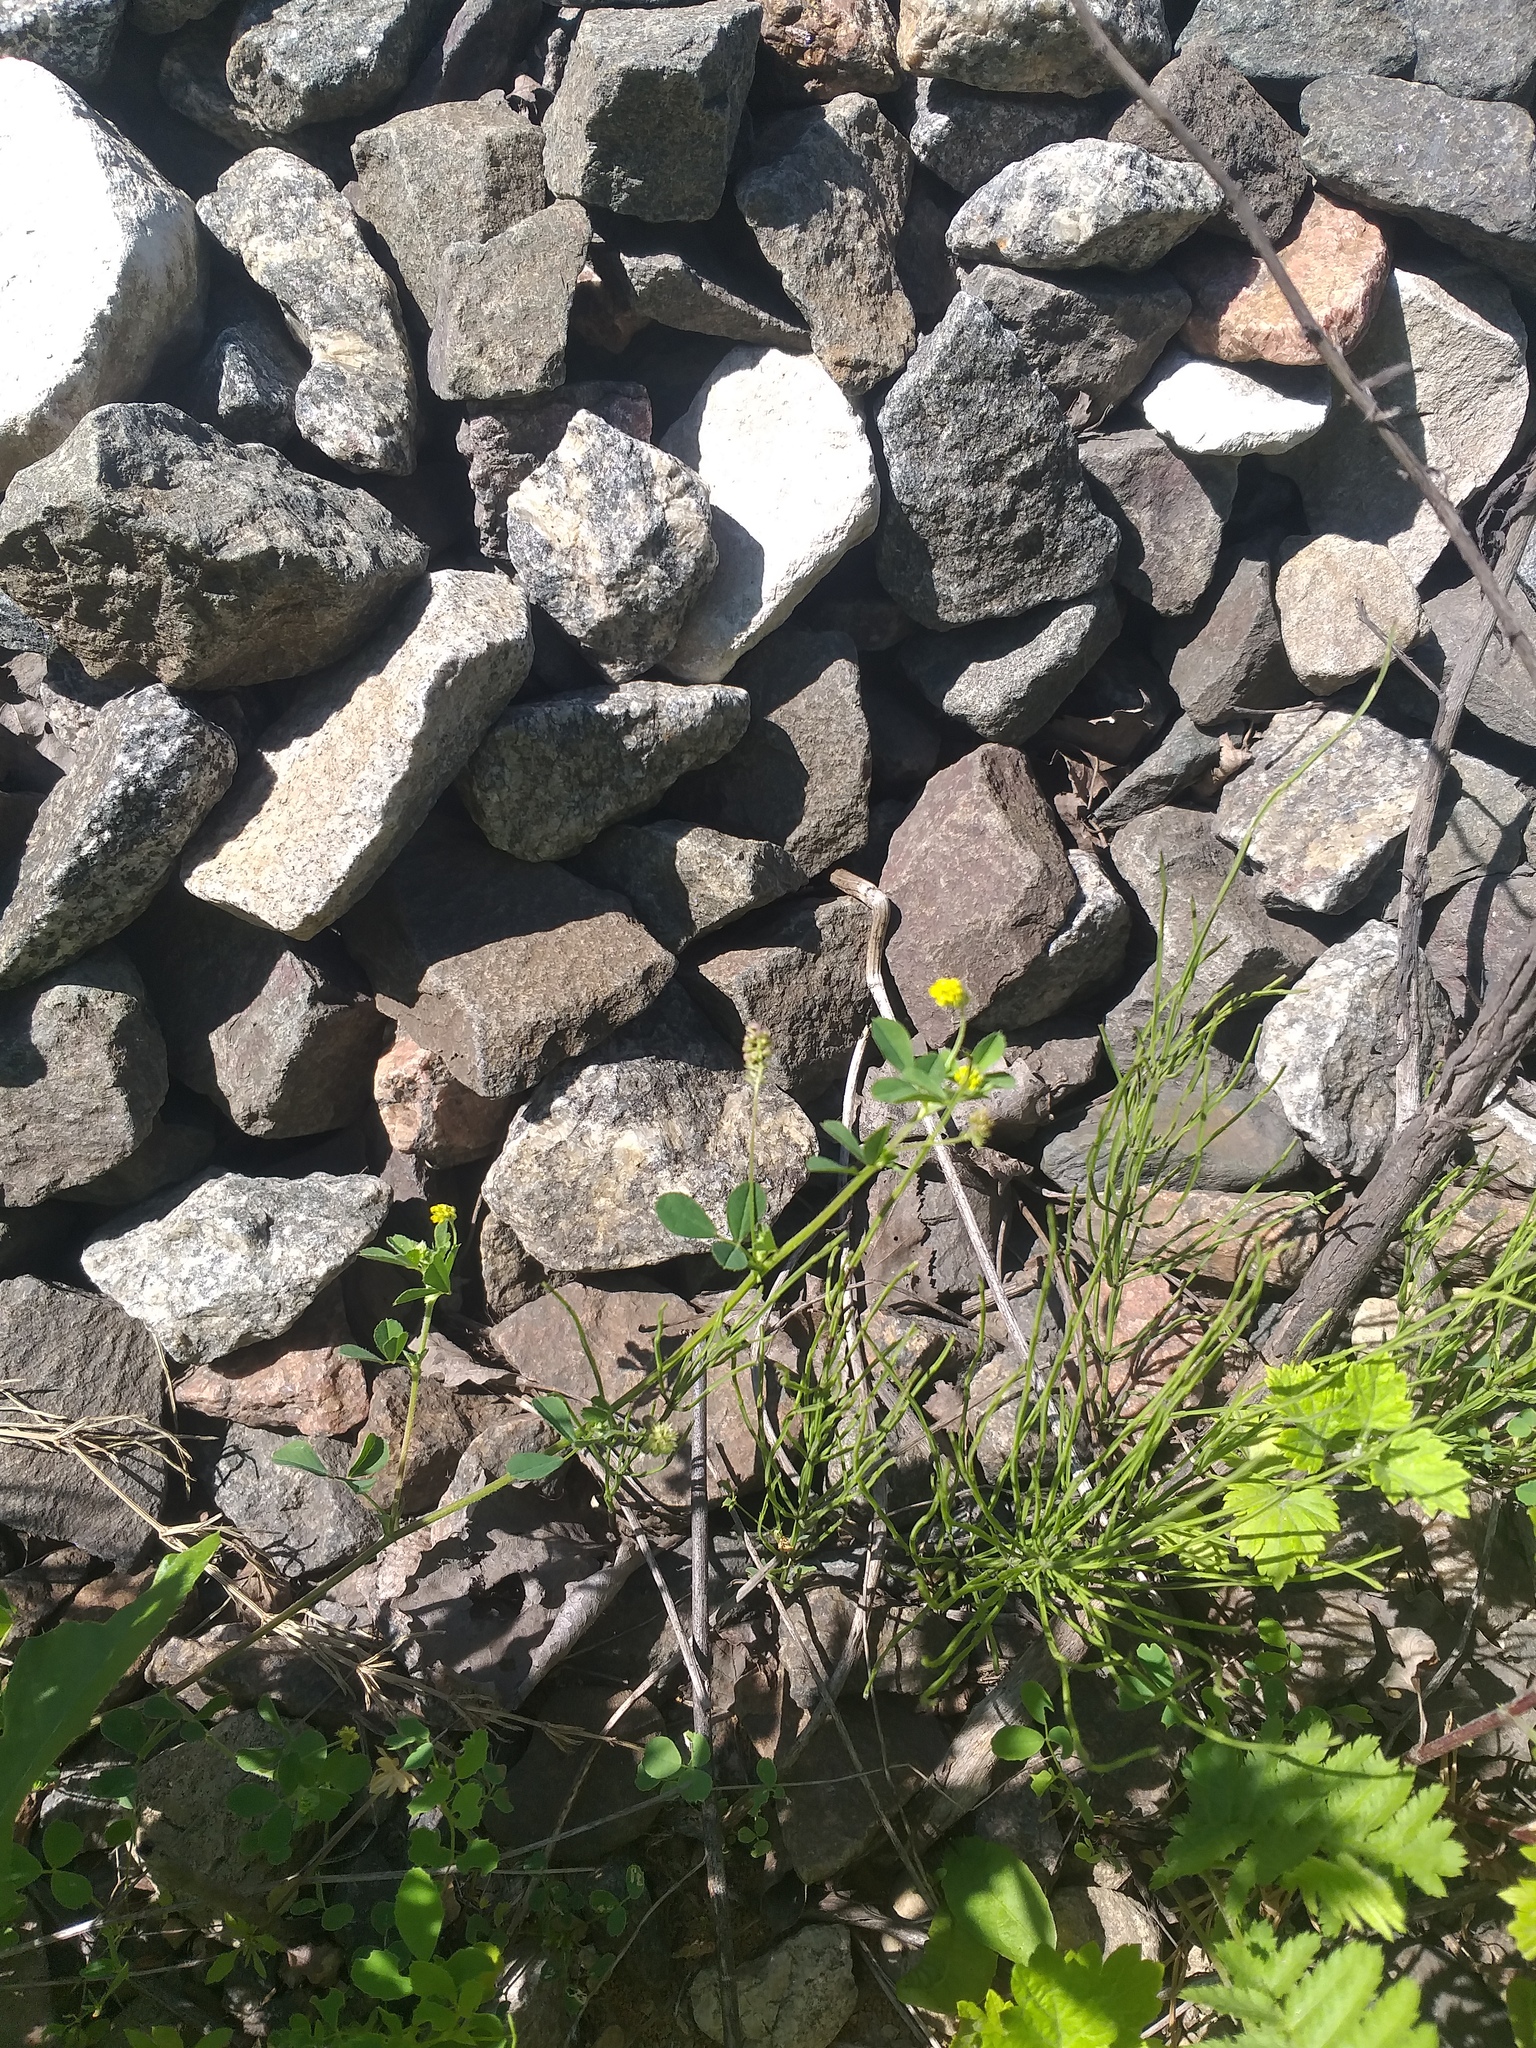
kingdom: Plantae
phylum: Tracheophyta
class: Magnoliopsida
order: Fabales
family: Fabaceae
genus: Medicago
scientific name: Medicago lupulina
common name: Black medick
